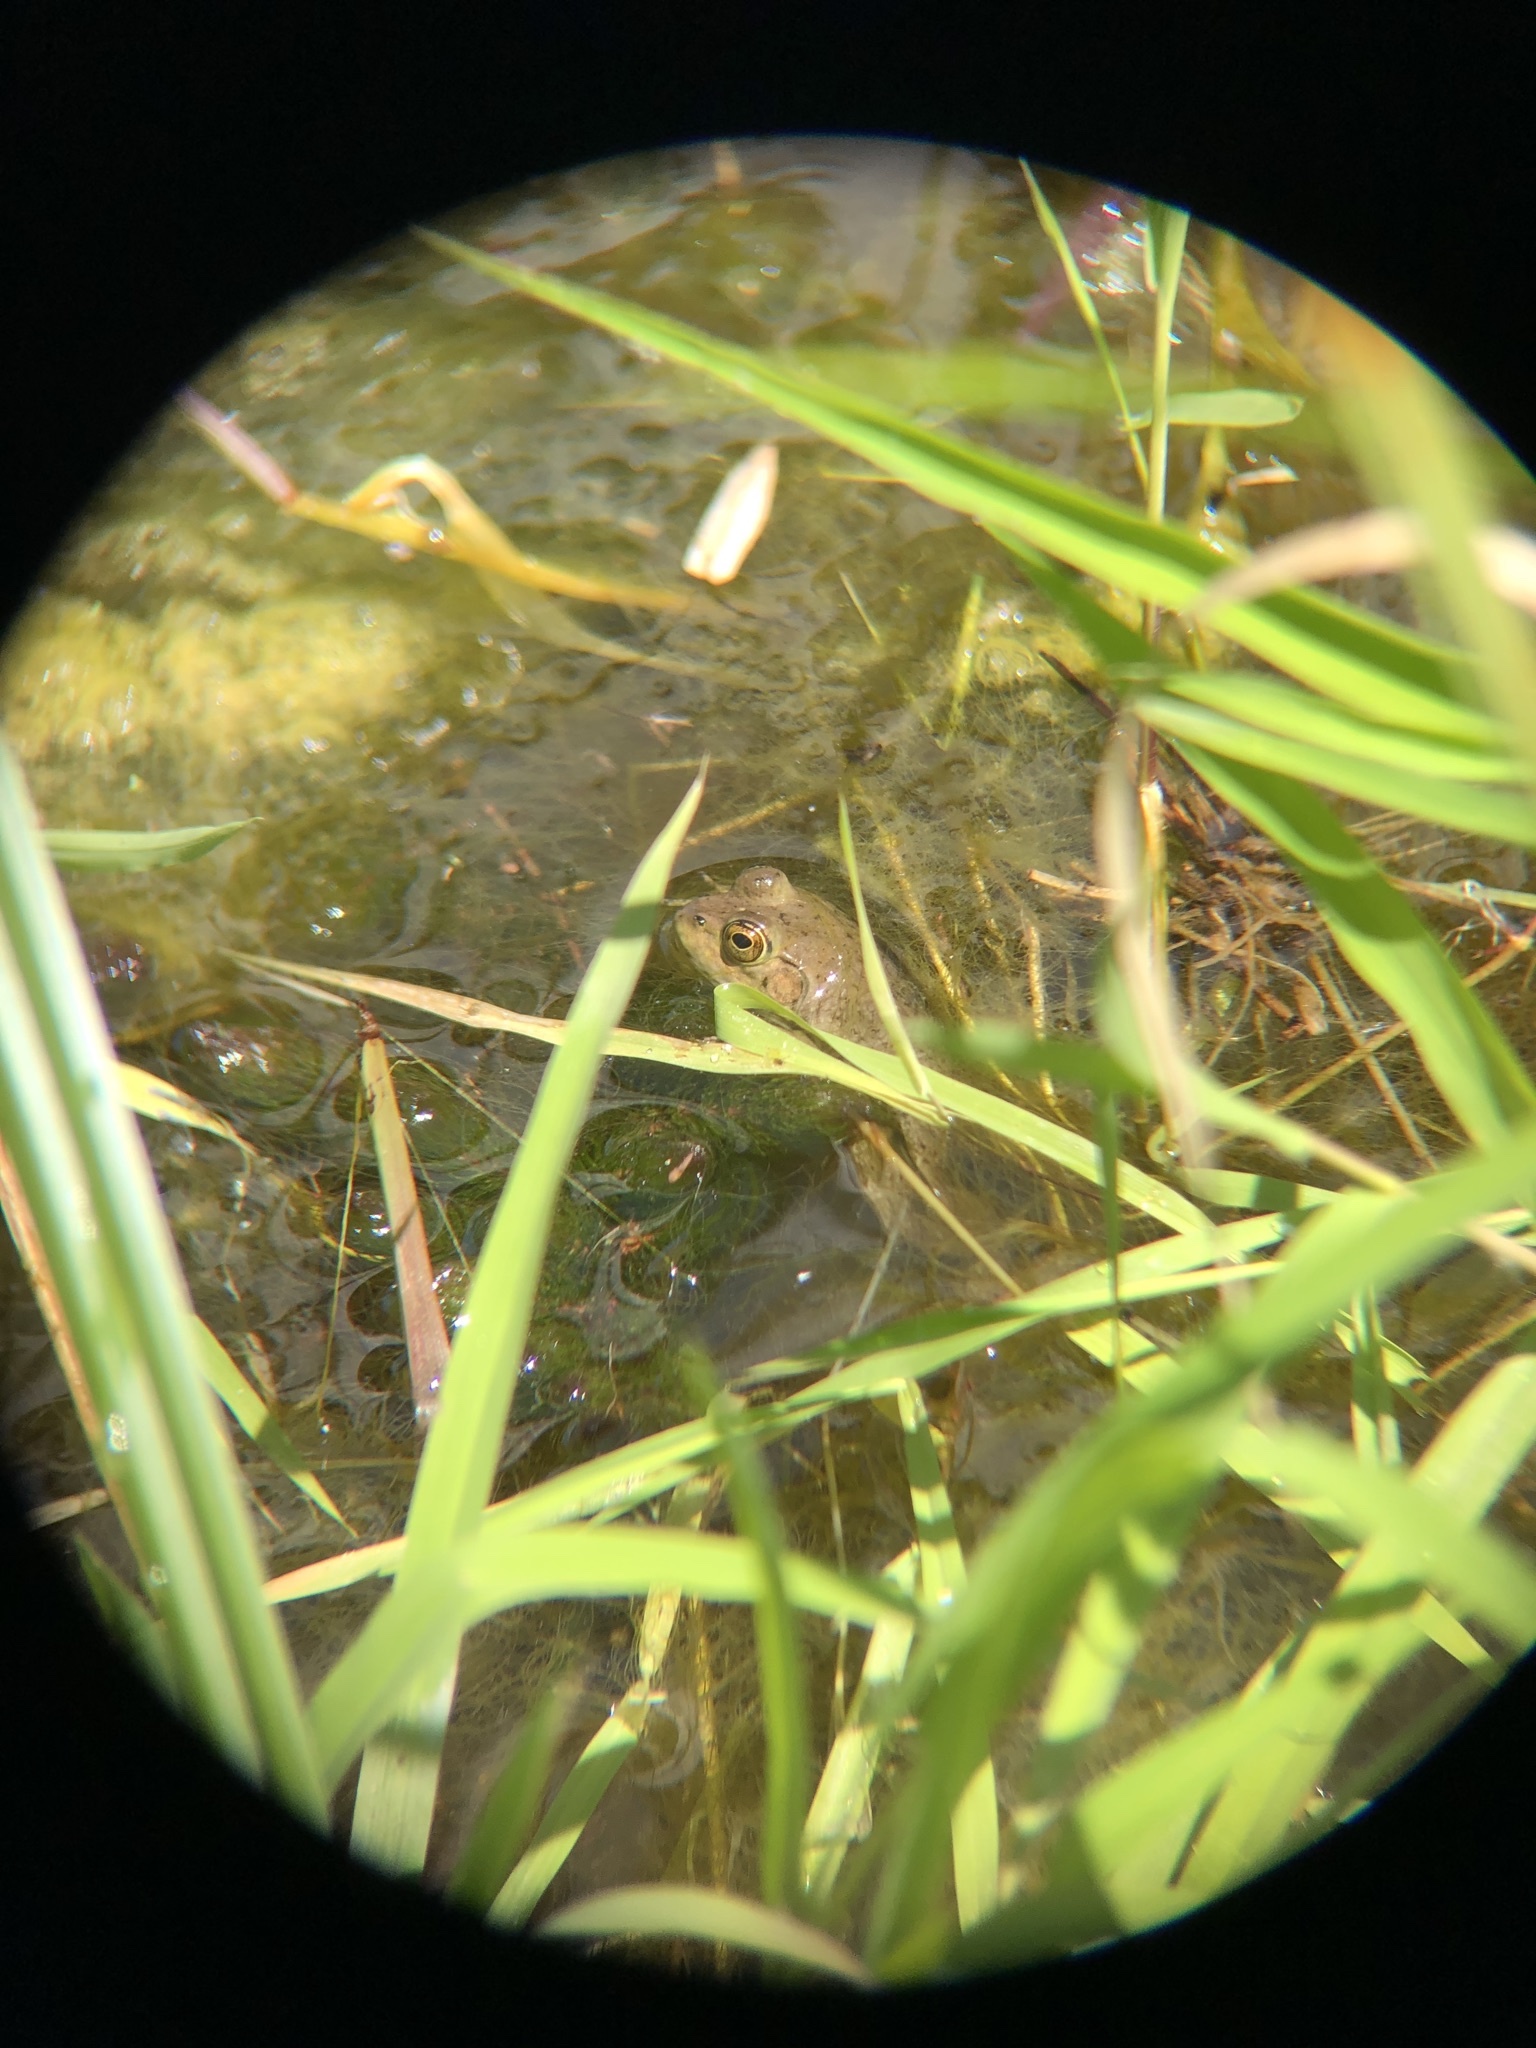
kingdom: Animalia
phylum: Chordata
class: Amphibia
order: Anura
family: Ranidae
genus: Lithobates
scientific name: Lithobates catesbeianus
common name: American bullfrog
